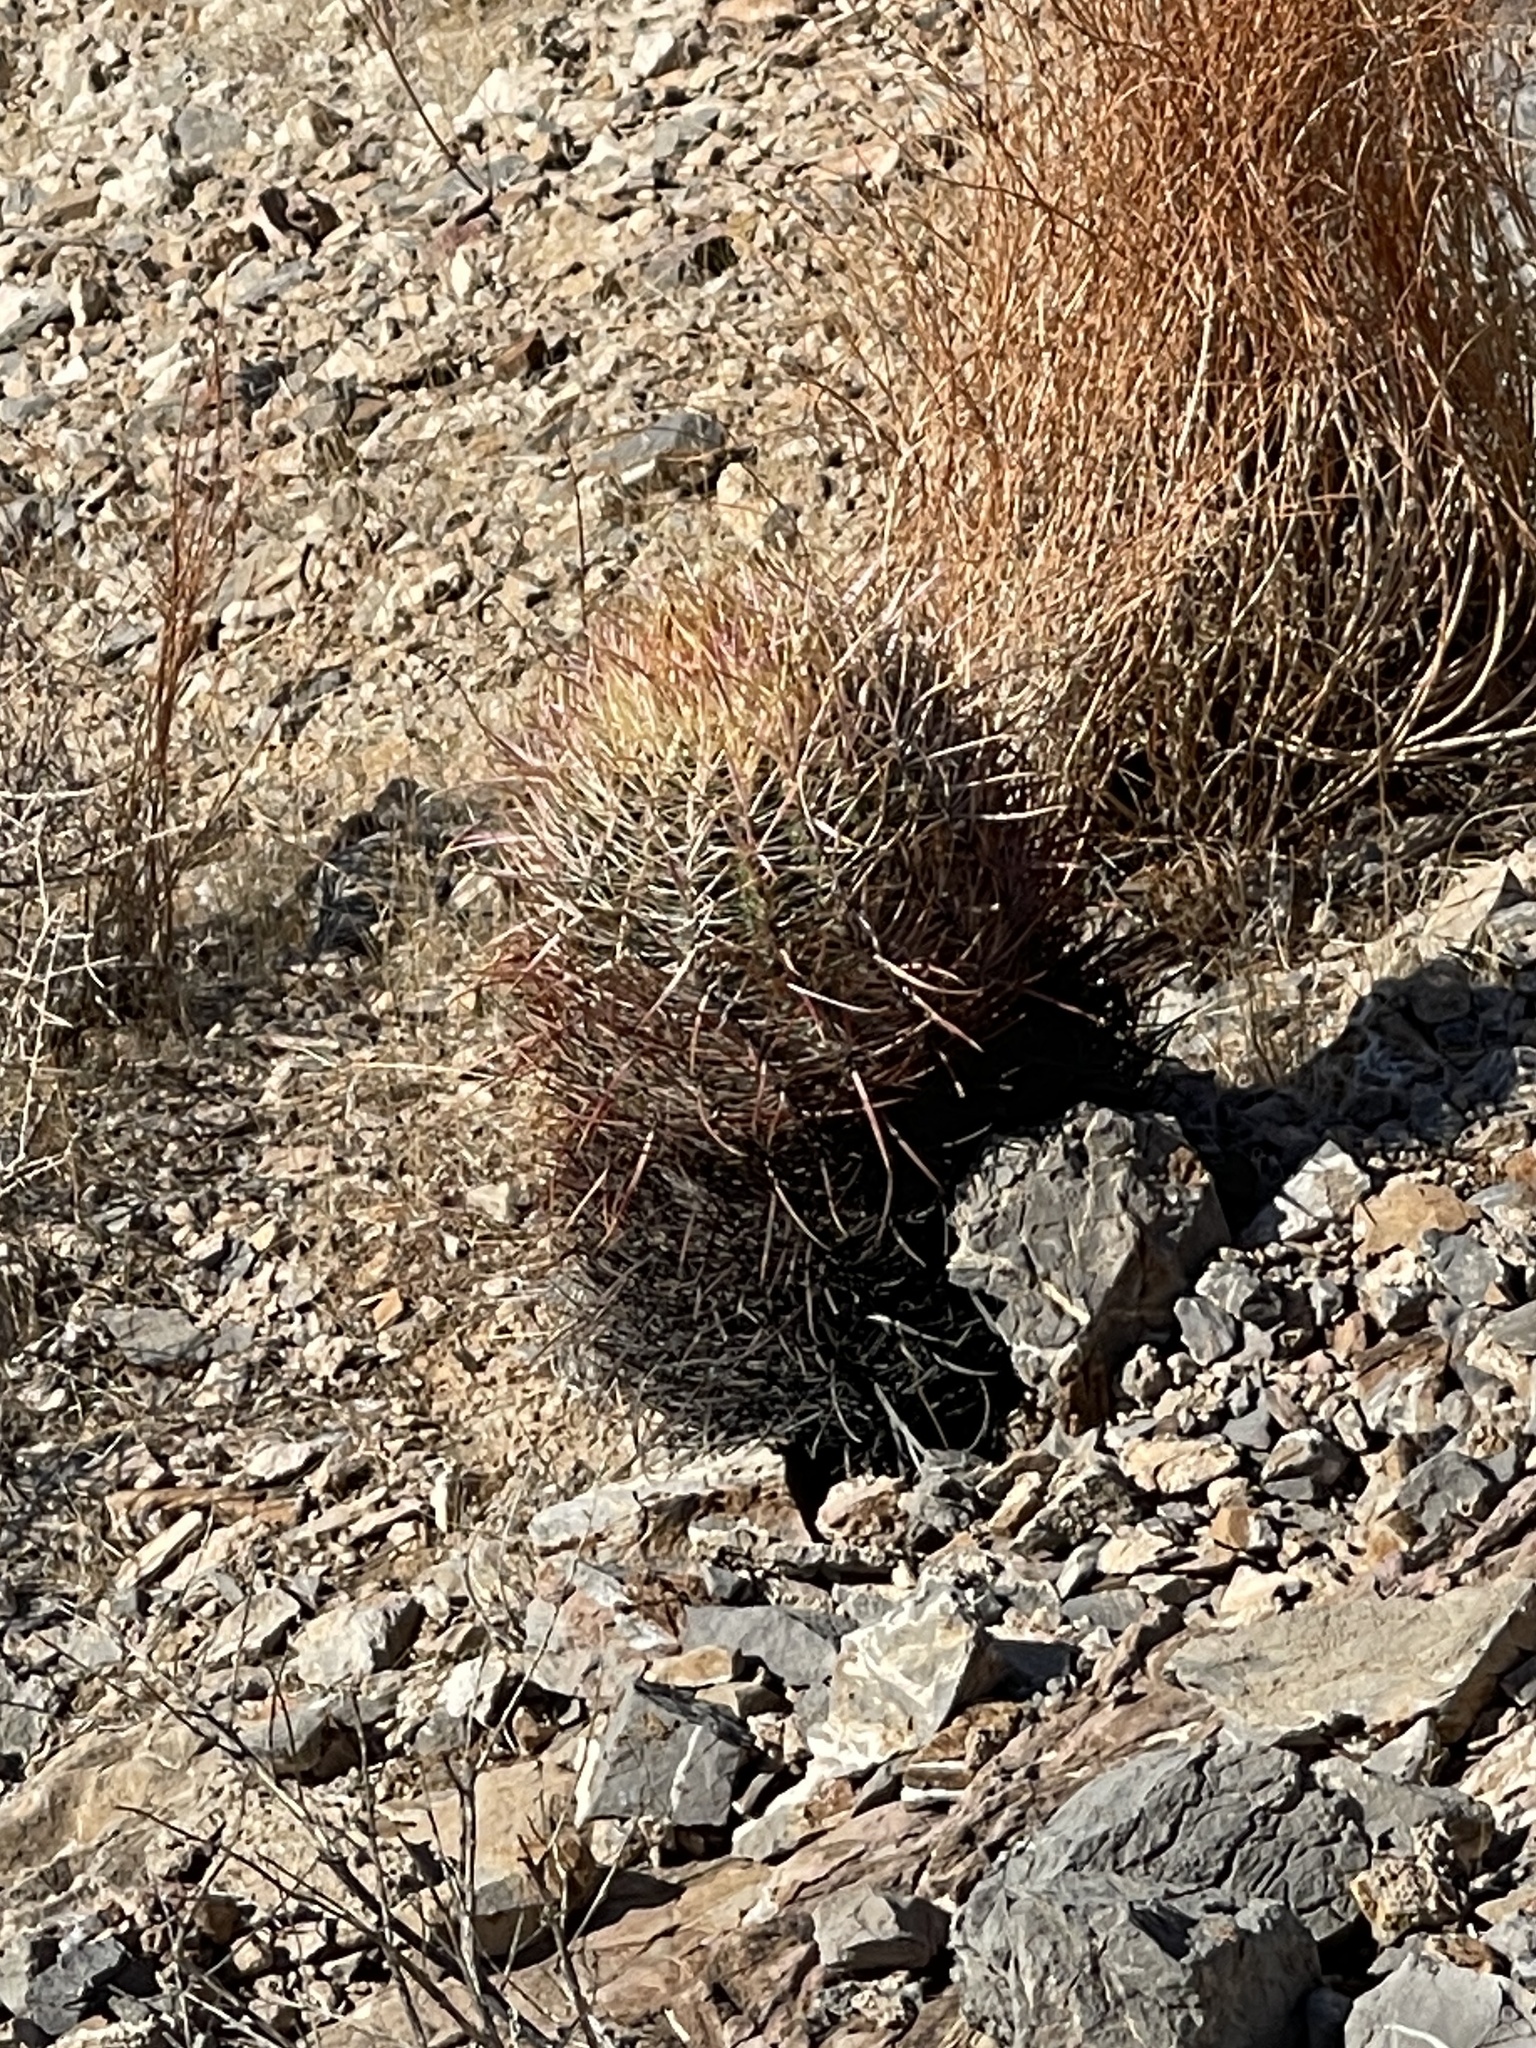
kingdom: Plantae
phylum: Tracheophyta
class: Magnoliopsida
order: Caryophyllales
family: Cactaceae
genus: Ferocactus
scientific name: Ferocactus cylindraceus
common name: California barrel cactus
